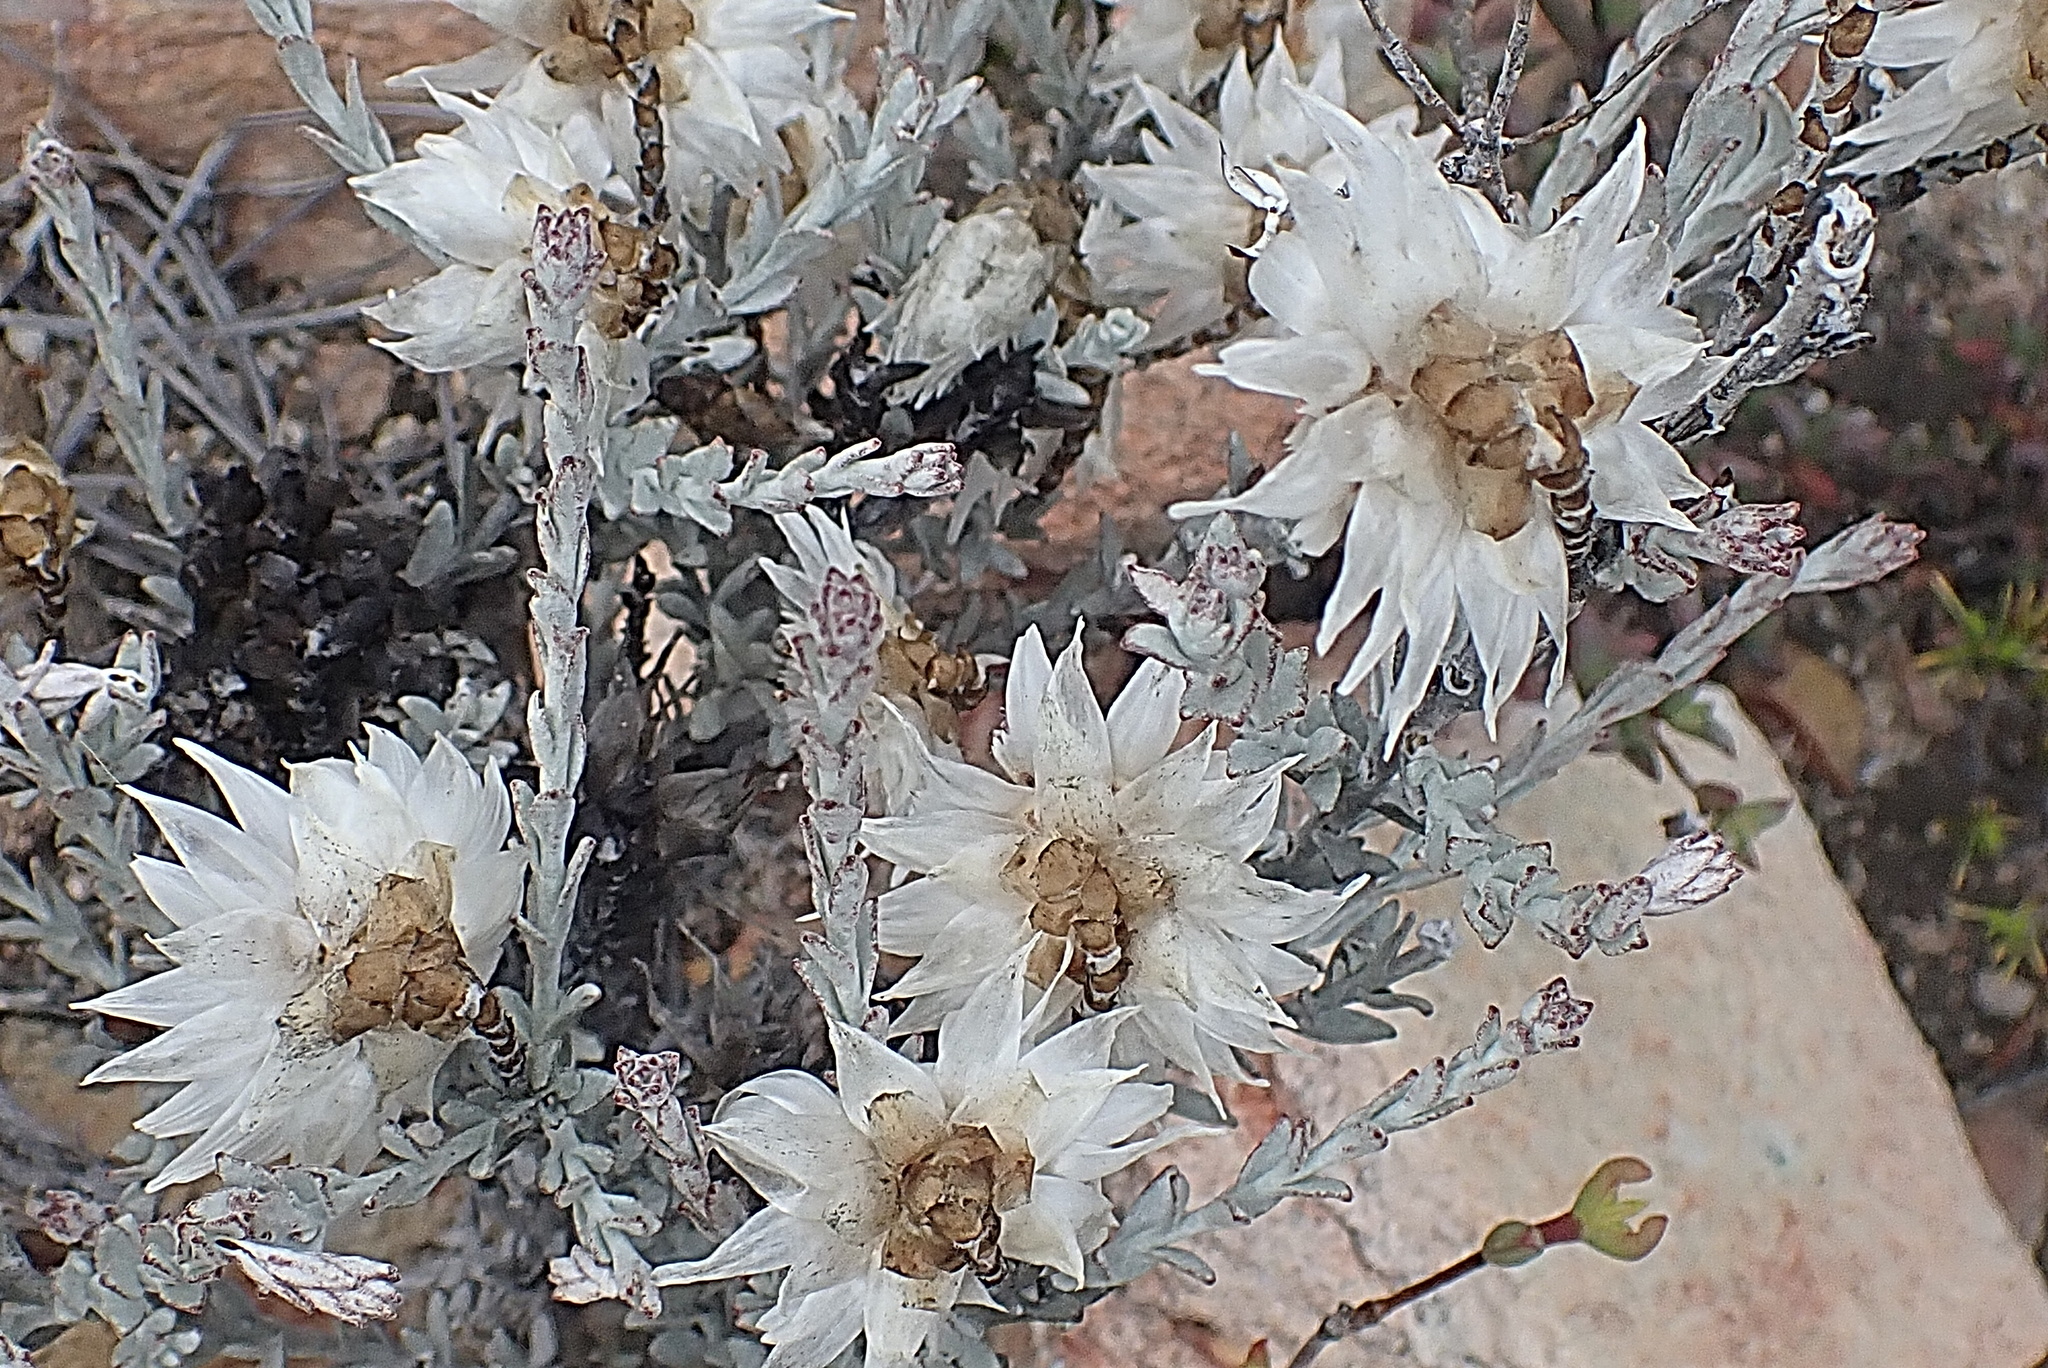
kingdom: Plantae
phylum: Tracheophyta
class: Magnoliopsida
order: Asterales
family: Asteraceae
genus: Syncarpha
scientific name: Syncarpha canescens
